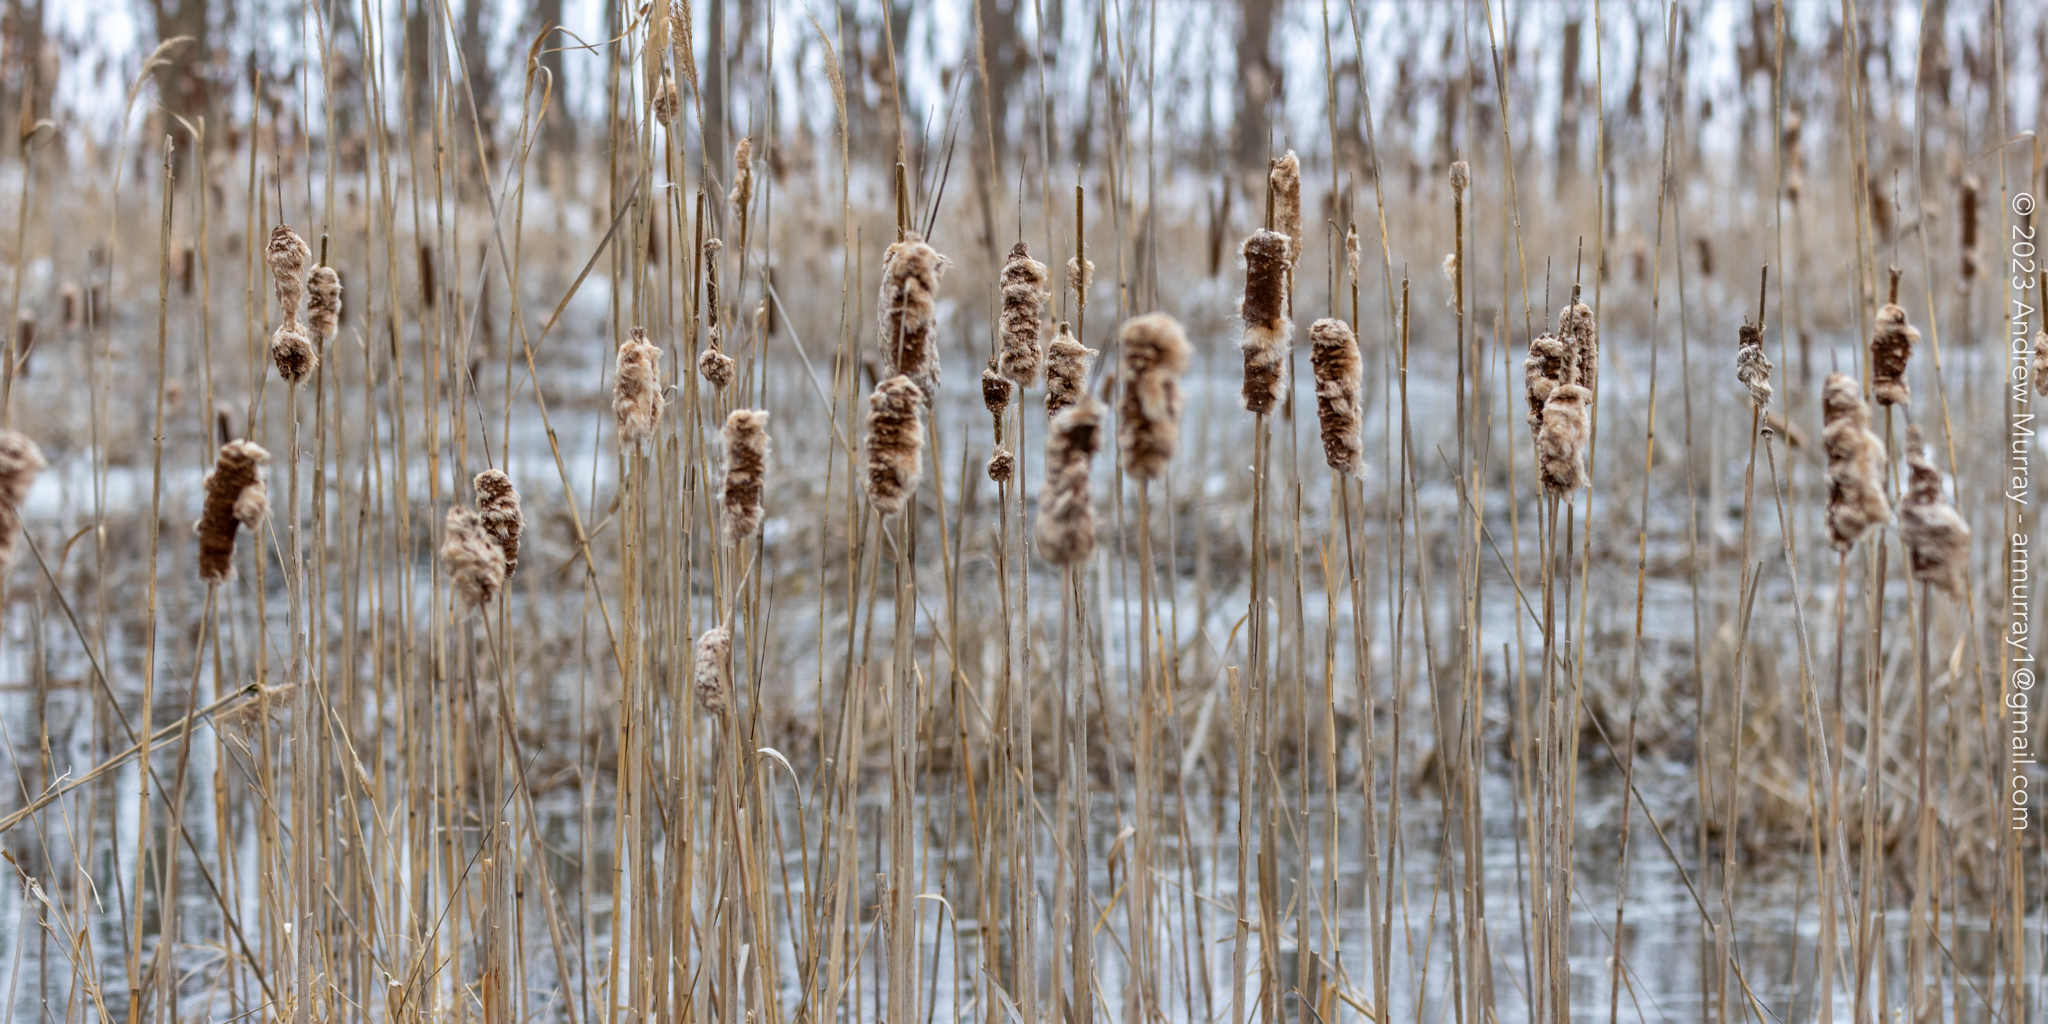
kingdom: Plantae
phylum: Tracheophyta
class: Liliopsida
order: Poales
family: Typhaceae
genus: Typha
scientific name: Typha latifolia
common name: Broadleaf cattail
